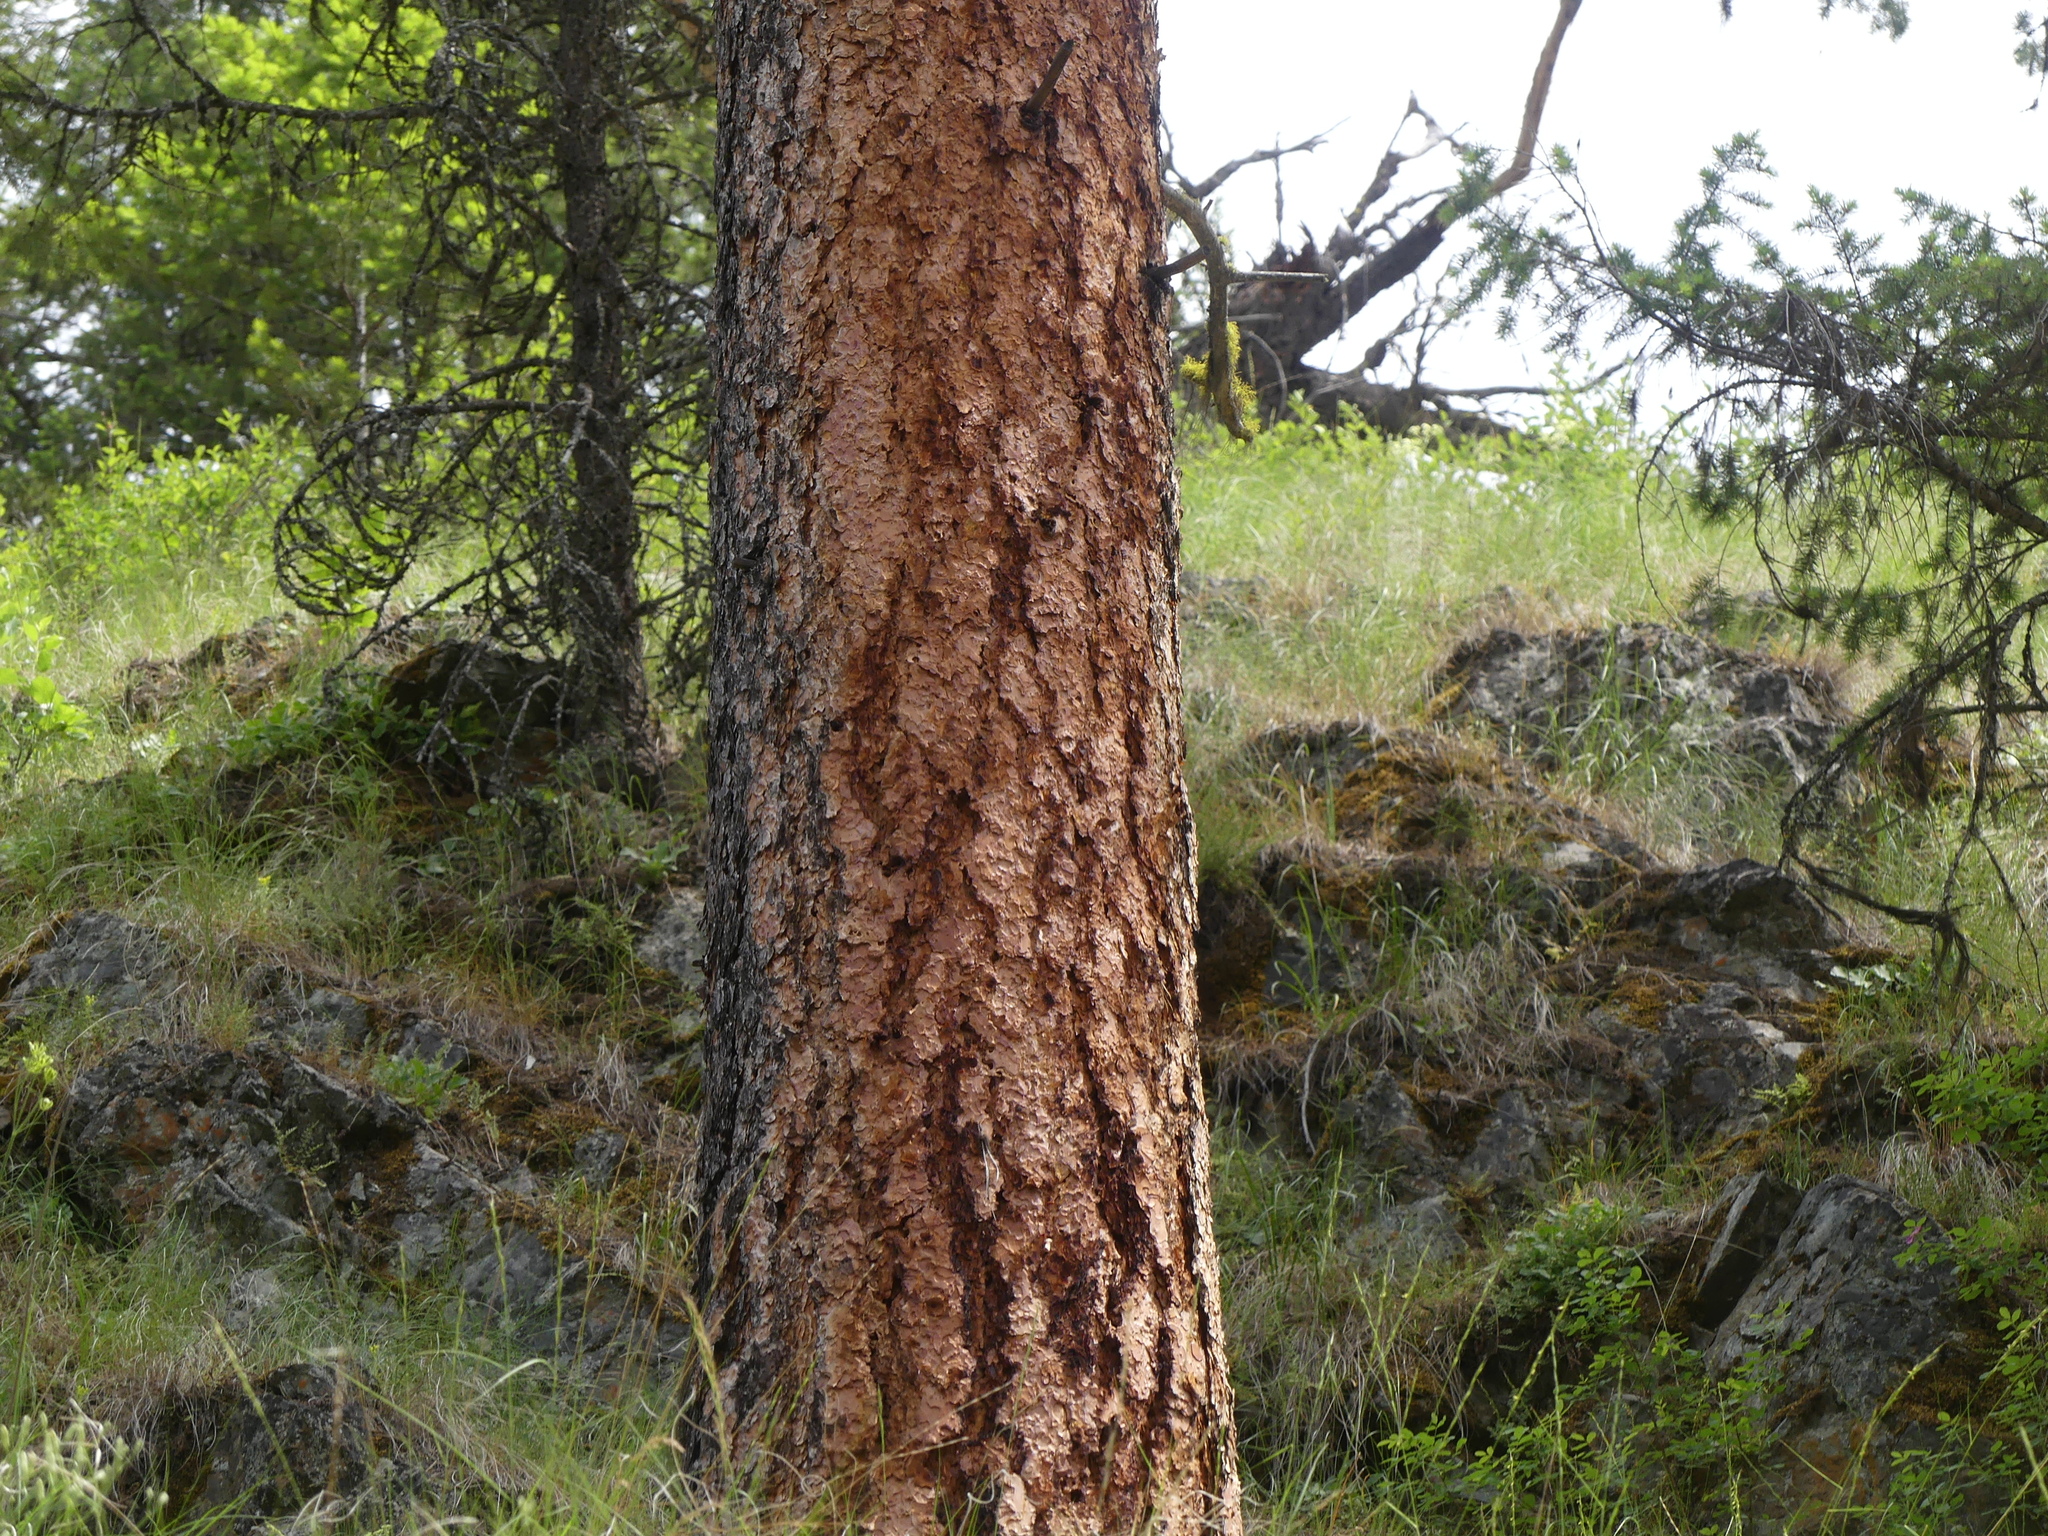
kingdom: Plantae
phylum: Tracheophyta
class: Pinopsida
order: Pinales
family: Pinaceae
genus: Pinus
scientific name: Pinus ponderosa
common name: Western yellow-pine
